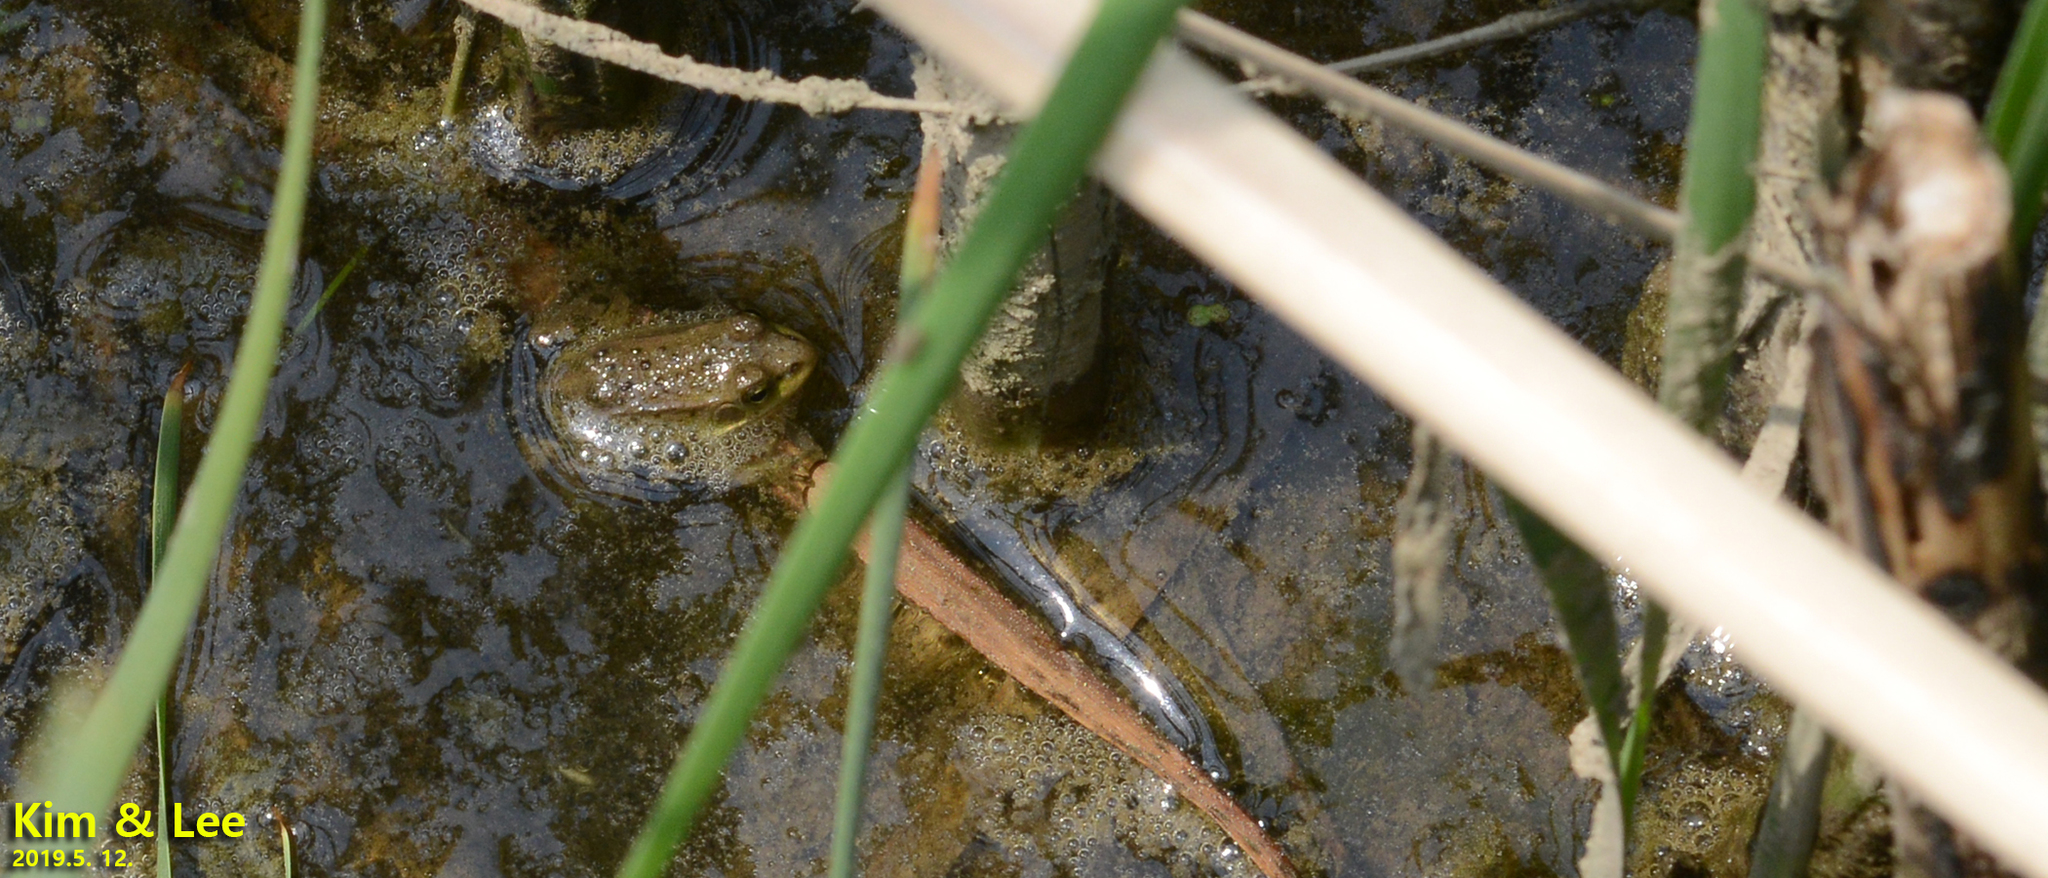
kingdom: Animalia
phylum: Chordata
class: Amphibia
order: Anura
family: Ranidae
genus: Pelophylax
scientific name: Pelophylax chosenicus
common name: Gold-spotted pond frog
